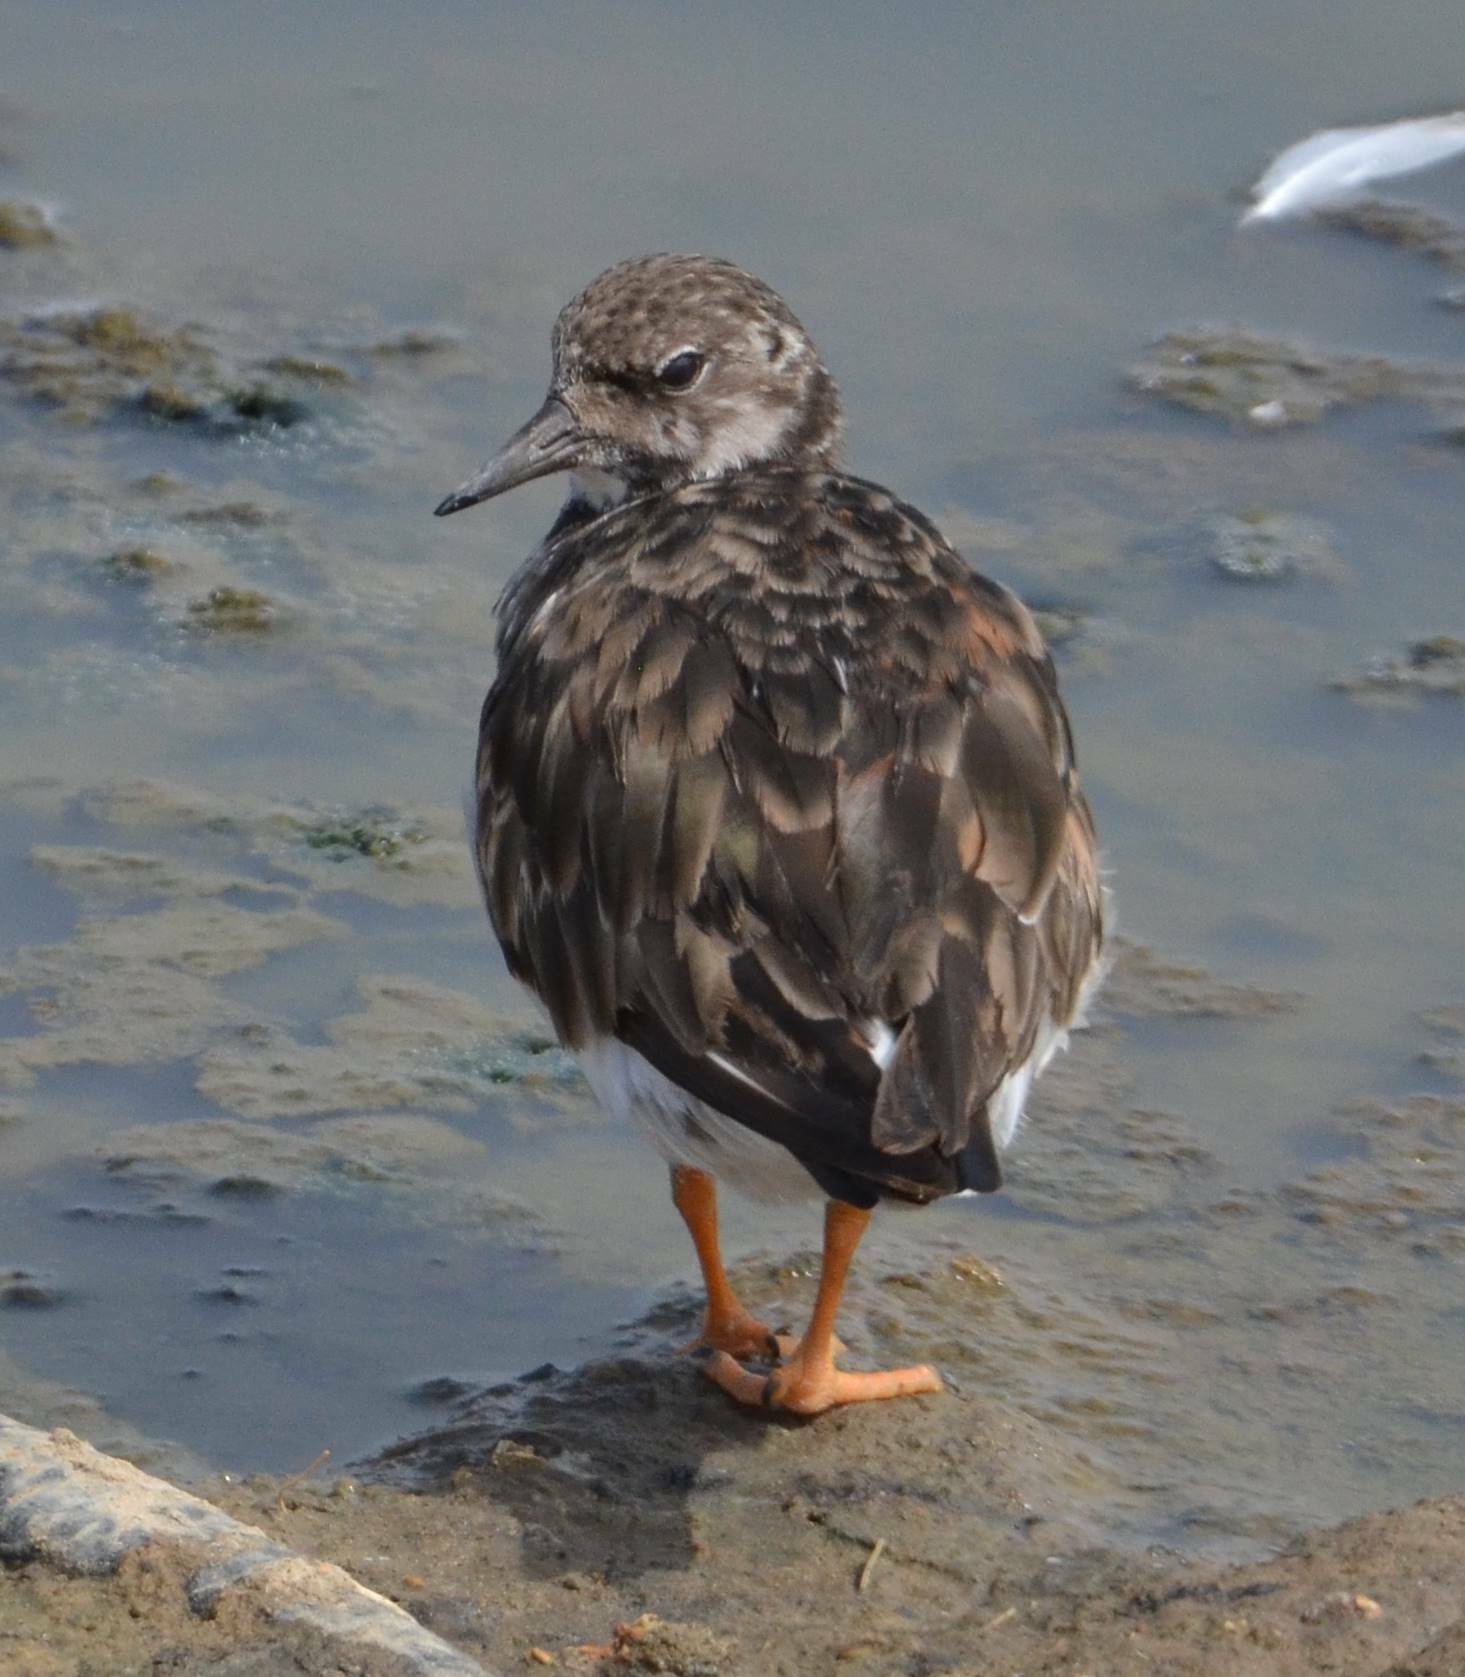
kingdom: Animalia
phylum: Chordata
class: Aves
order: Charadriiformes
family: Scolopacidae
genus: Arenaria
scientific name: Arenaria interpres
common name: Ruddy turnstone
